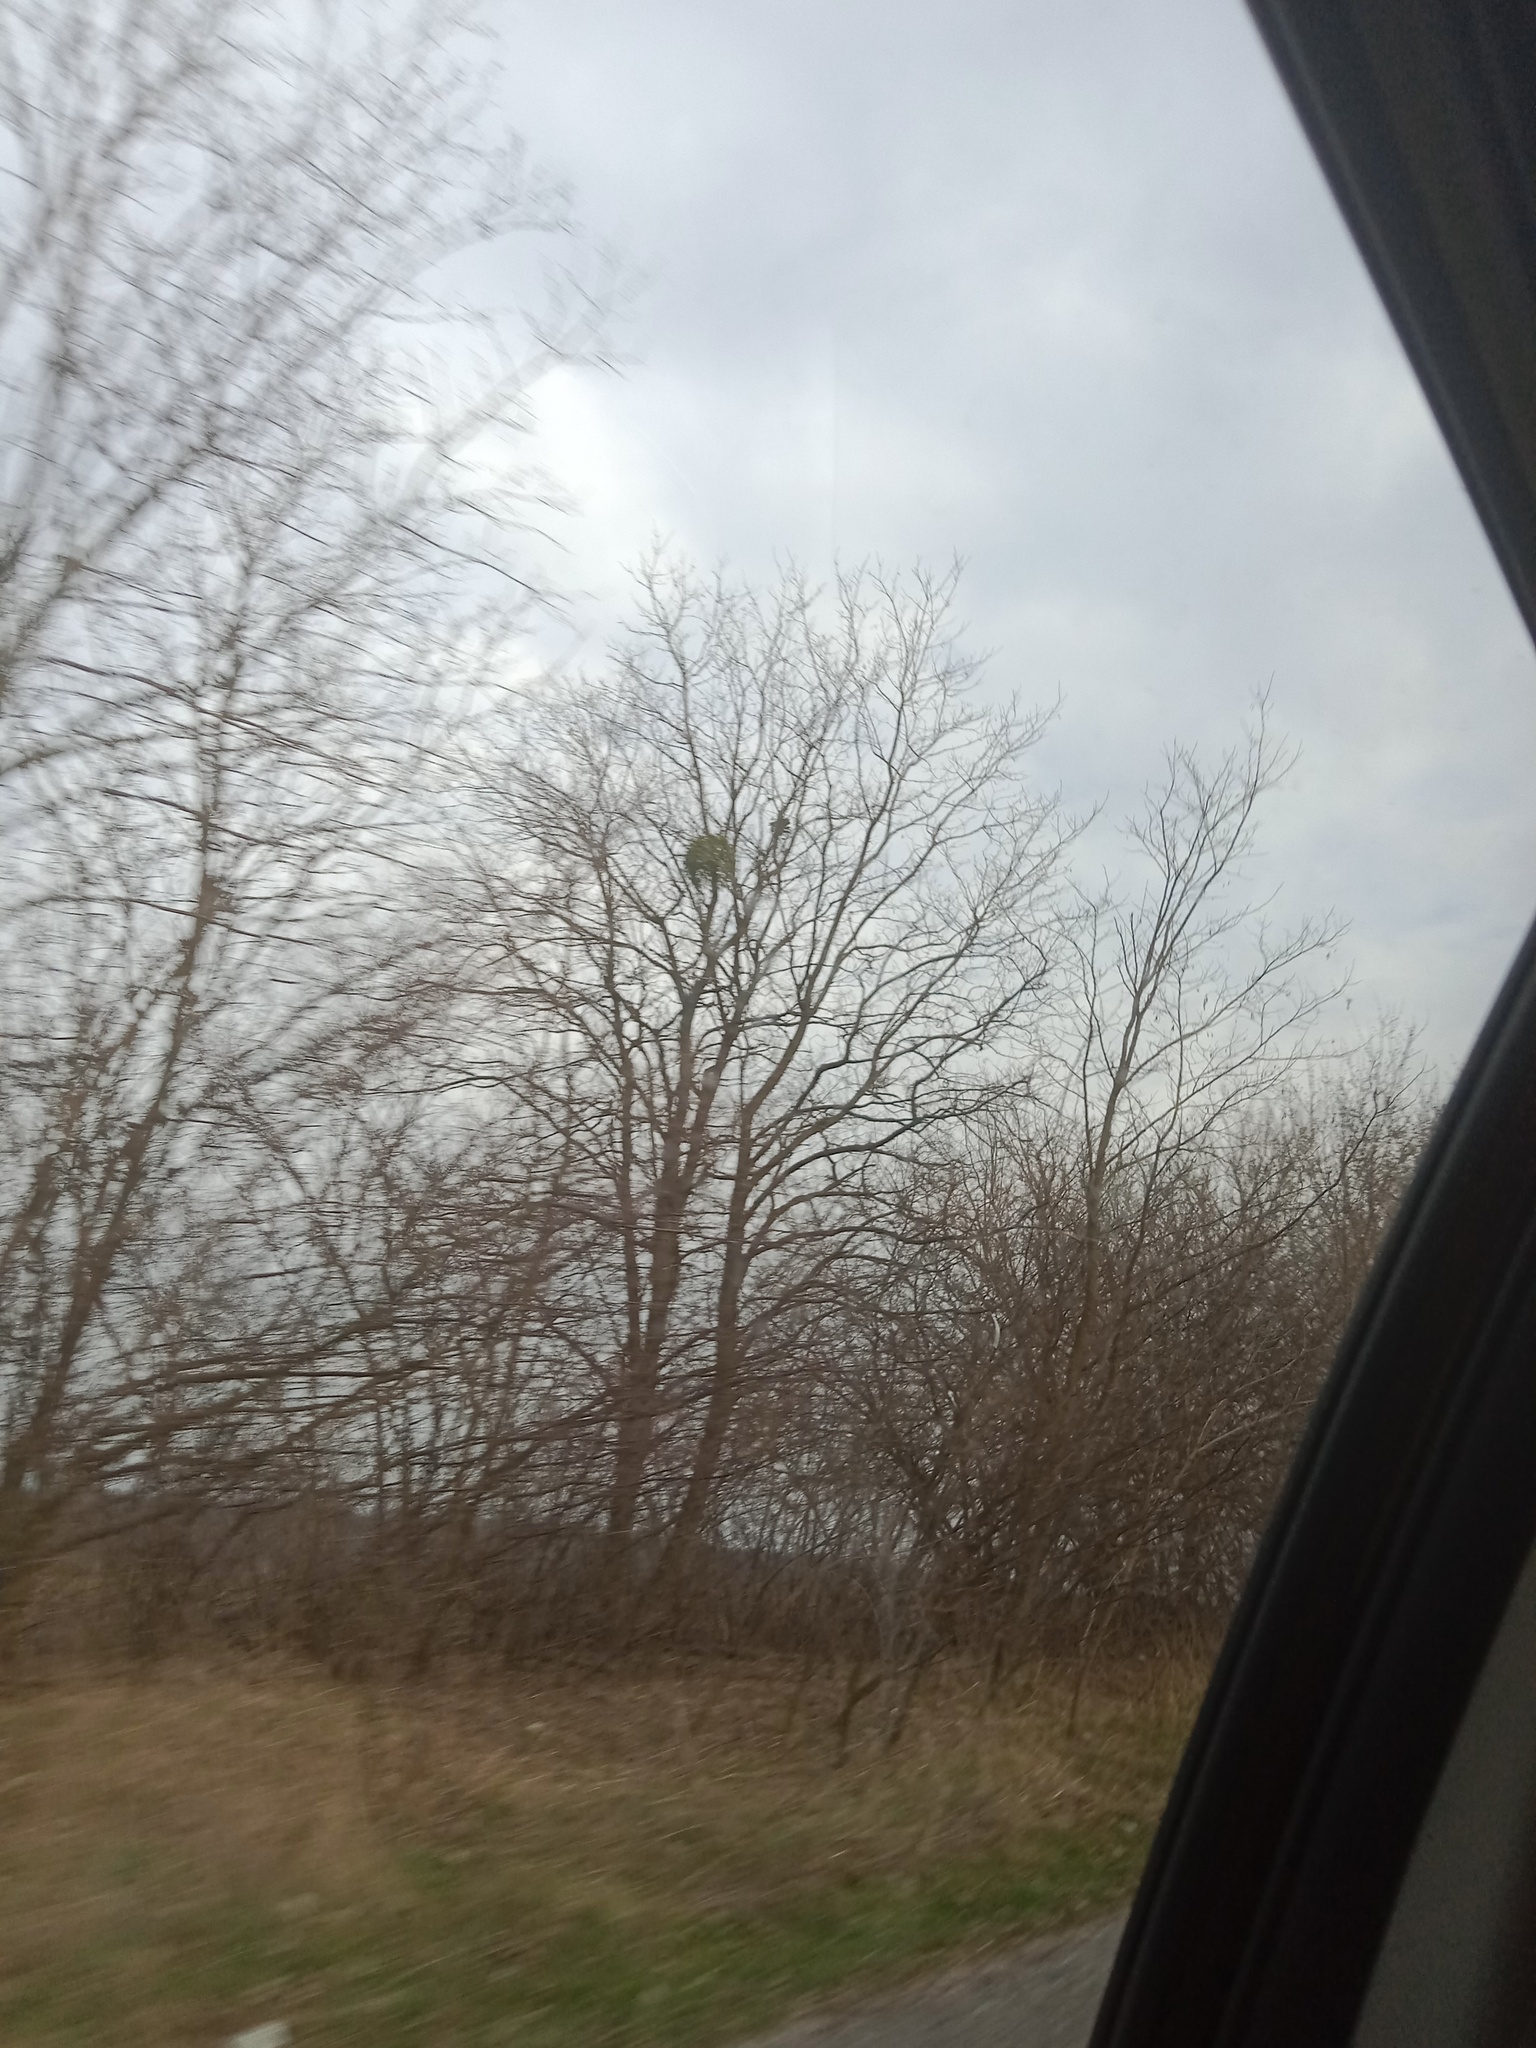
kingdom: Plantae
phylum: Tracheophyta
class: Magnoliopsida
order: Santalales
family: Viscaceae
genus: Viscum
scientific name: Viscum album
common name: Mistletoe
